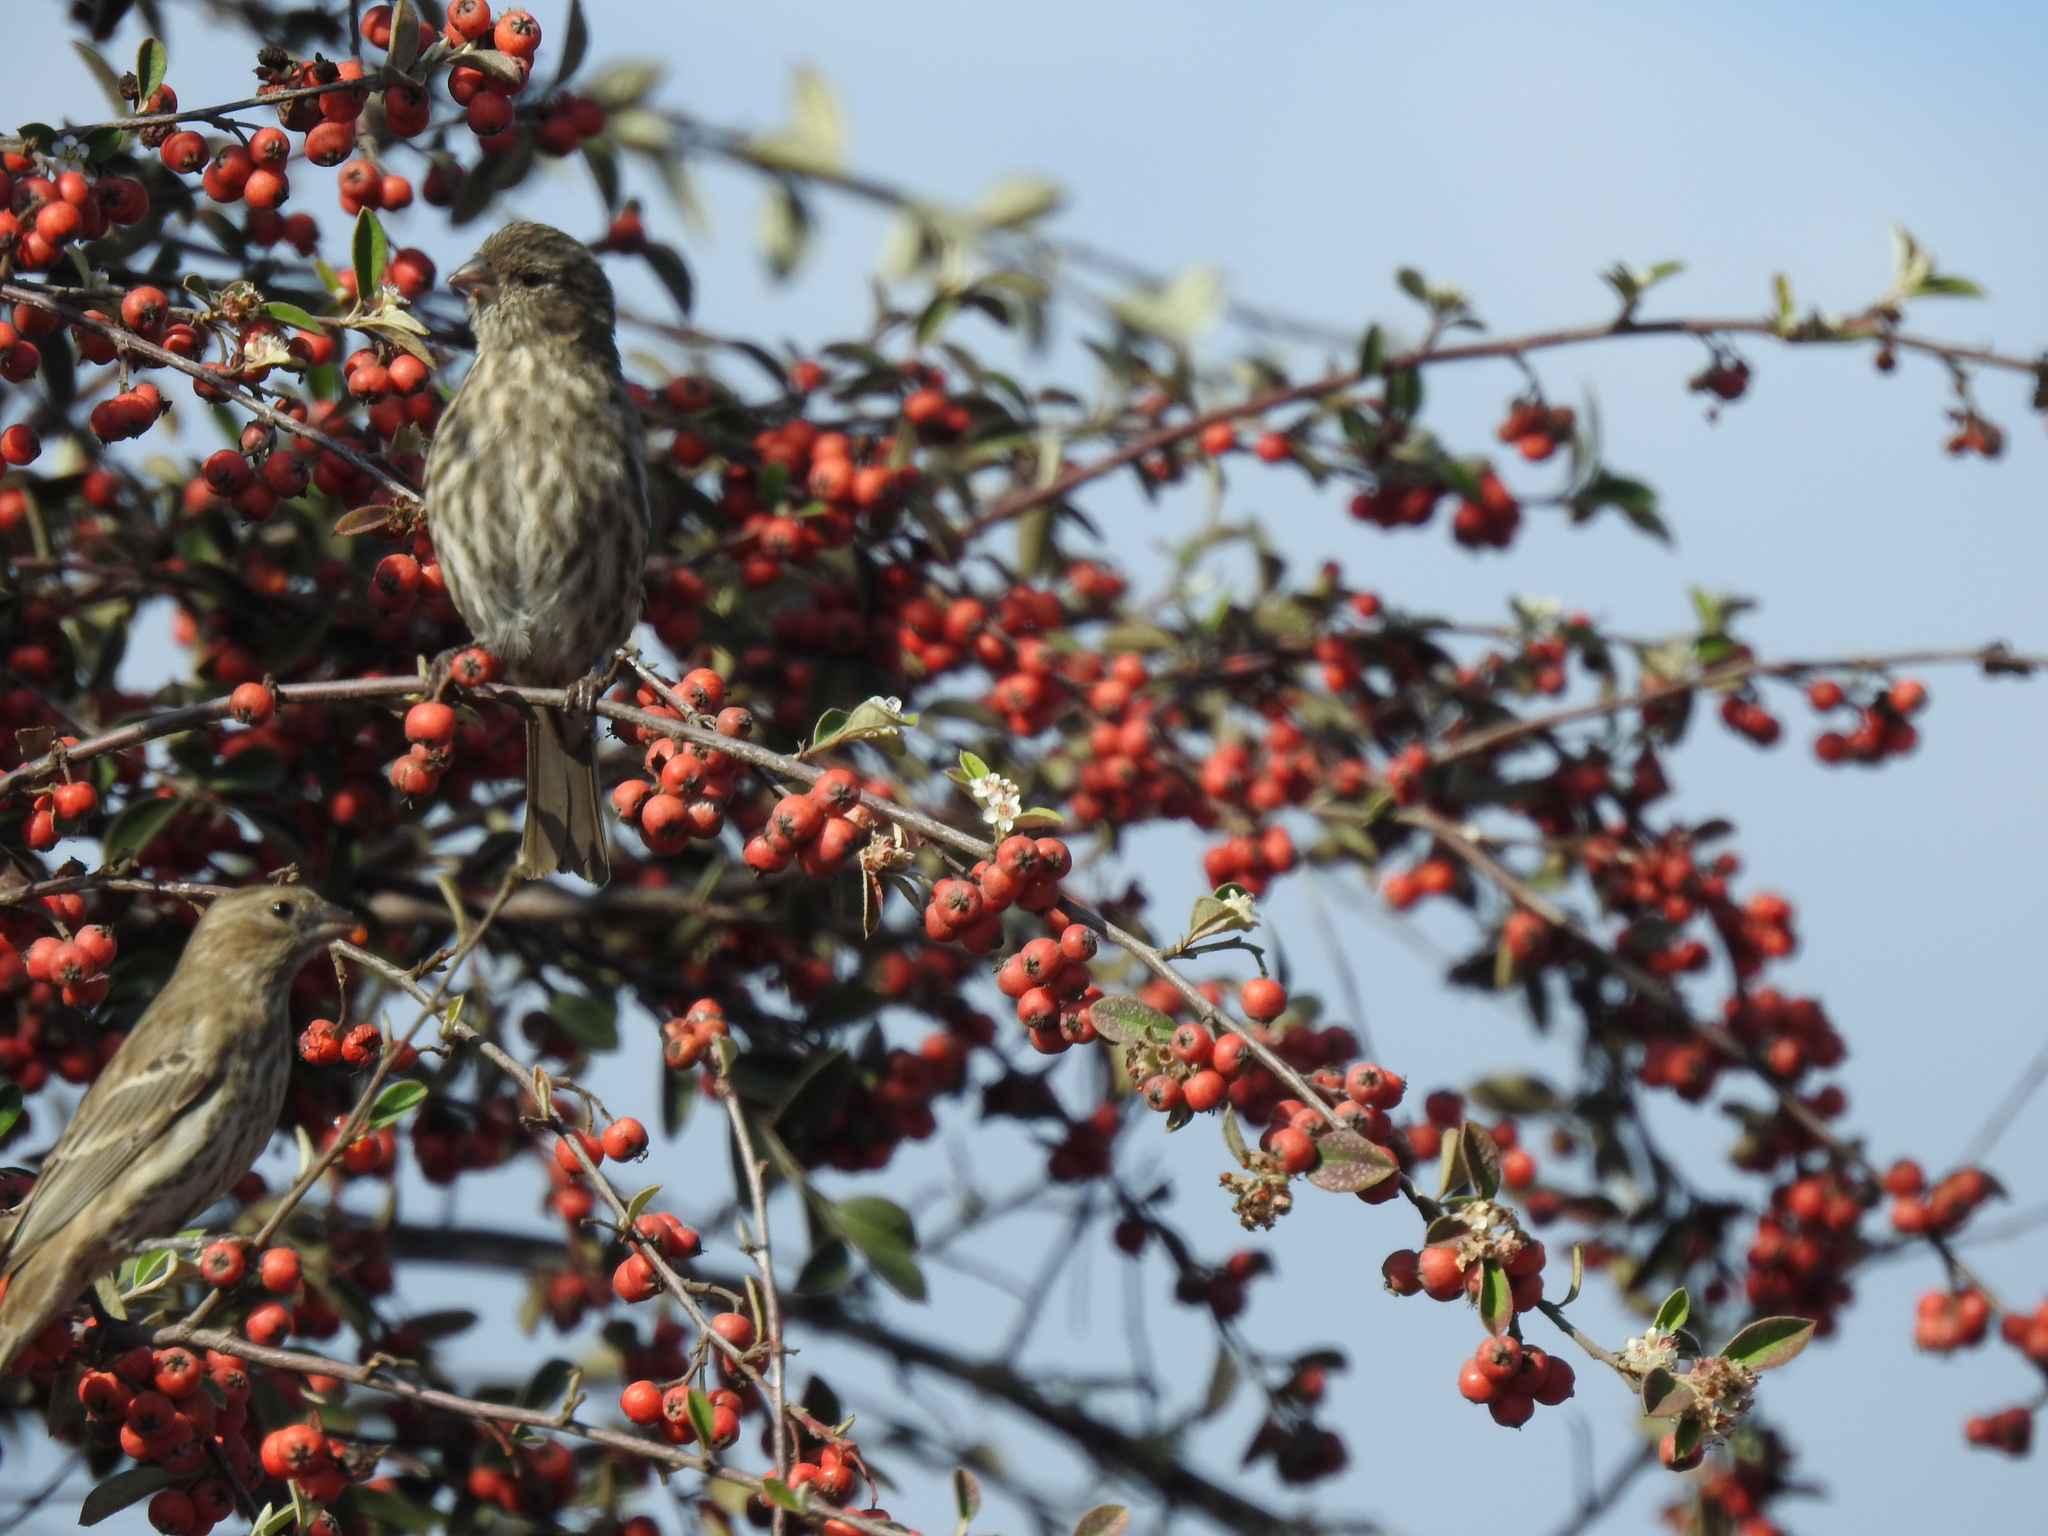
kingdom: Animalia
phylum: Chordata
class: Aves
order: Passeriformes
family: Fringillidae
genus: Haemorhous
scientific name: Haemorhous mexicanus
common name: House finch
